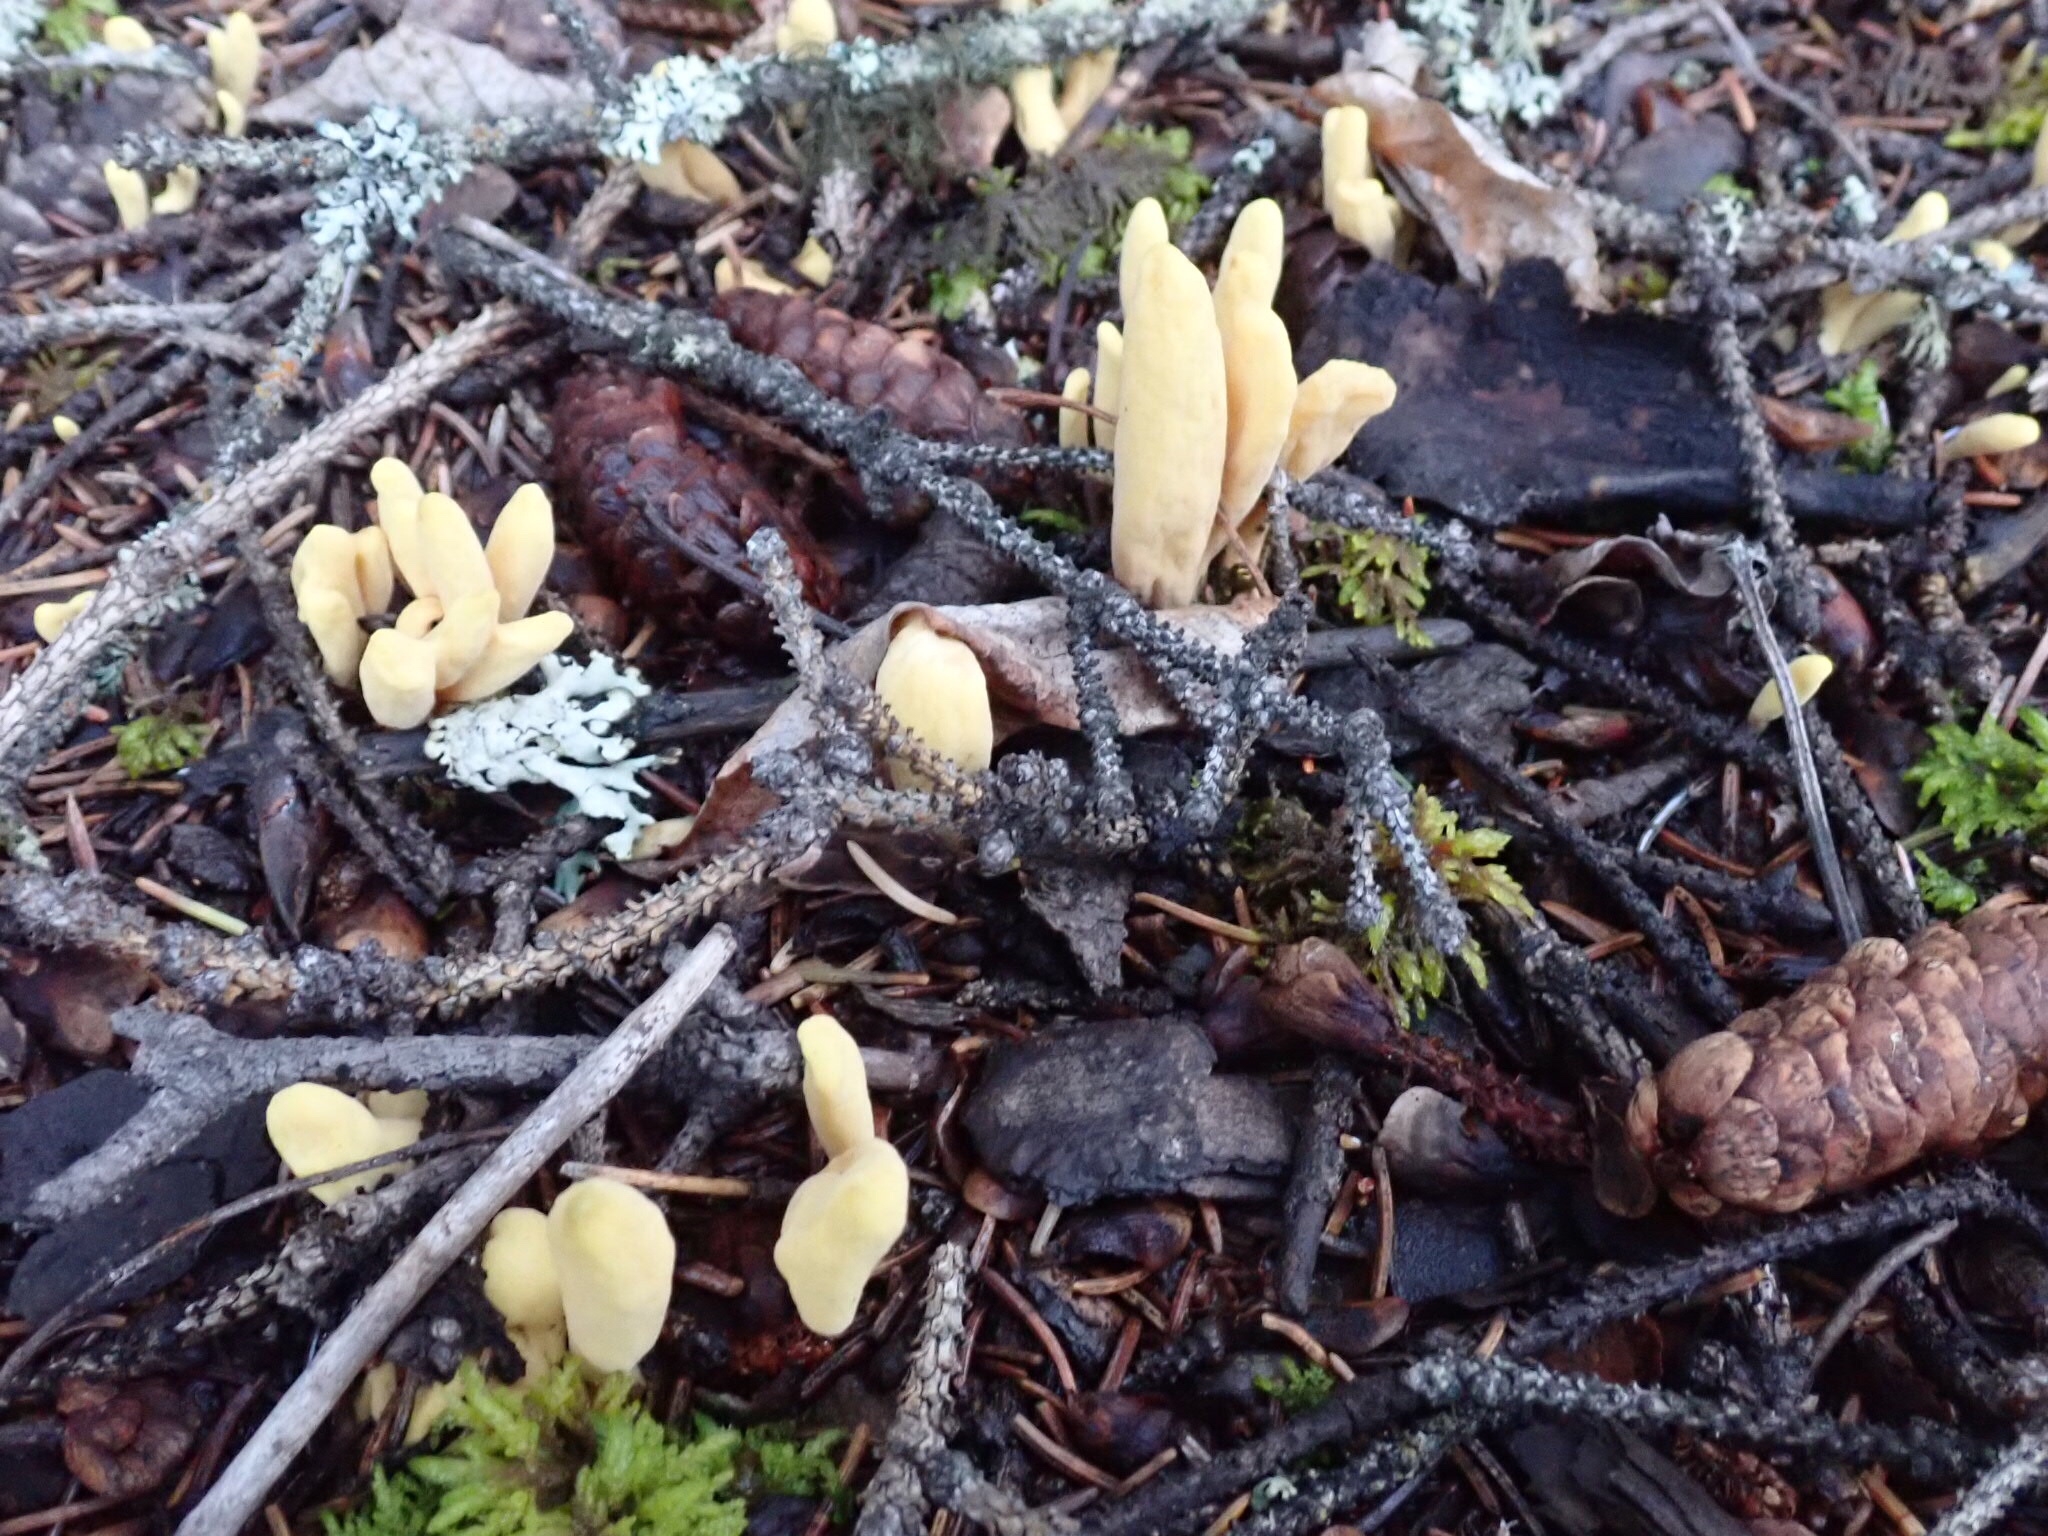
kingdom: Fungi
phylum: Basidiomycota
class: Agaricomycetes
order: Gomphales
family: Clavariadelphaceae
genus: Clavariadelphus
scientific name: Clavariadelphus sachalinensis
